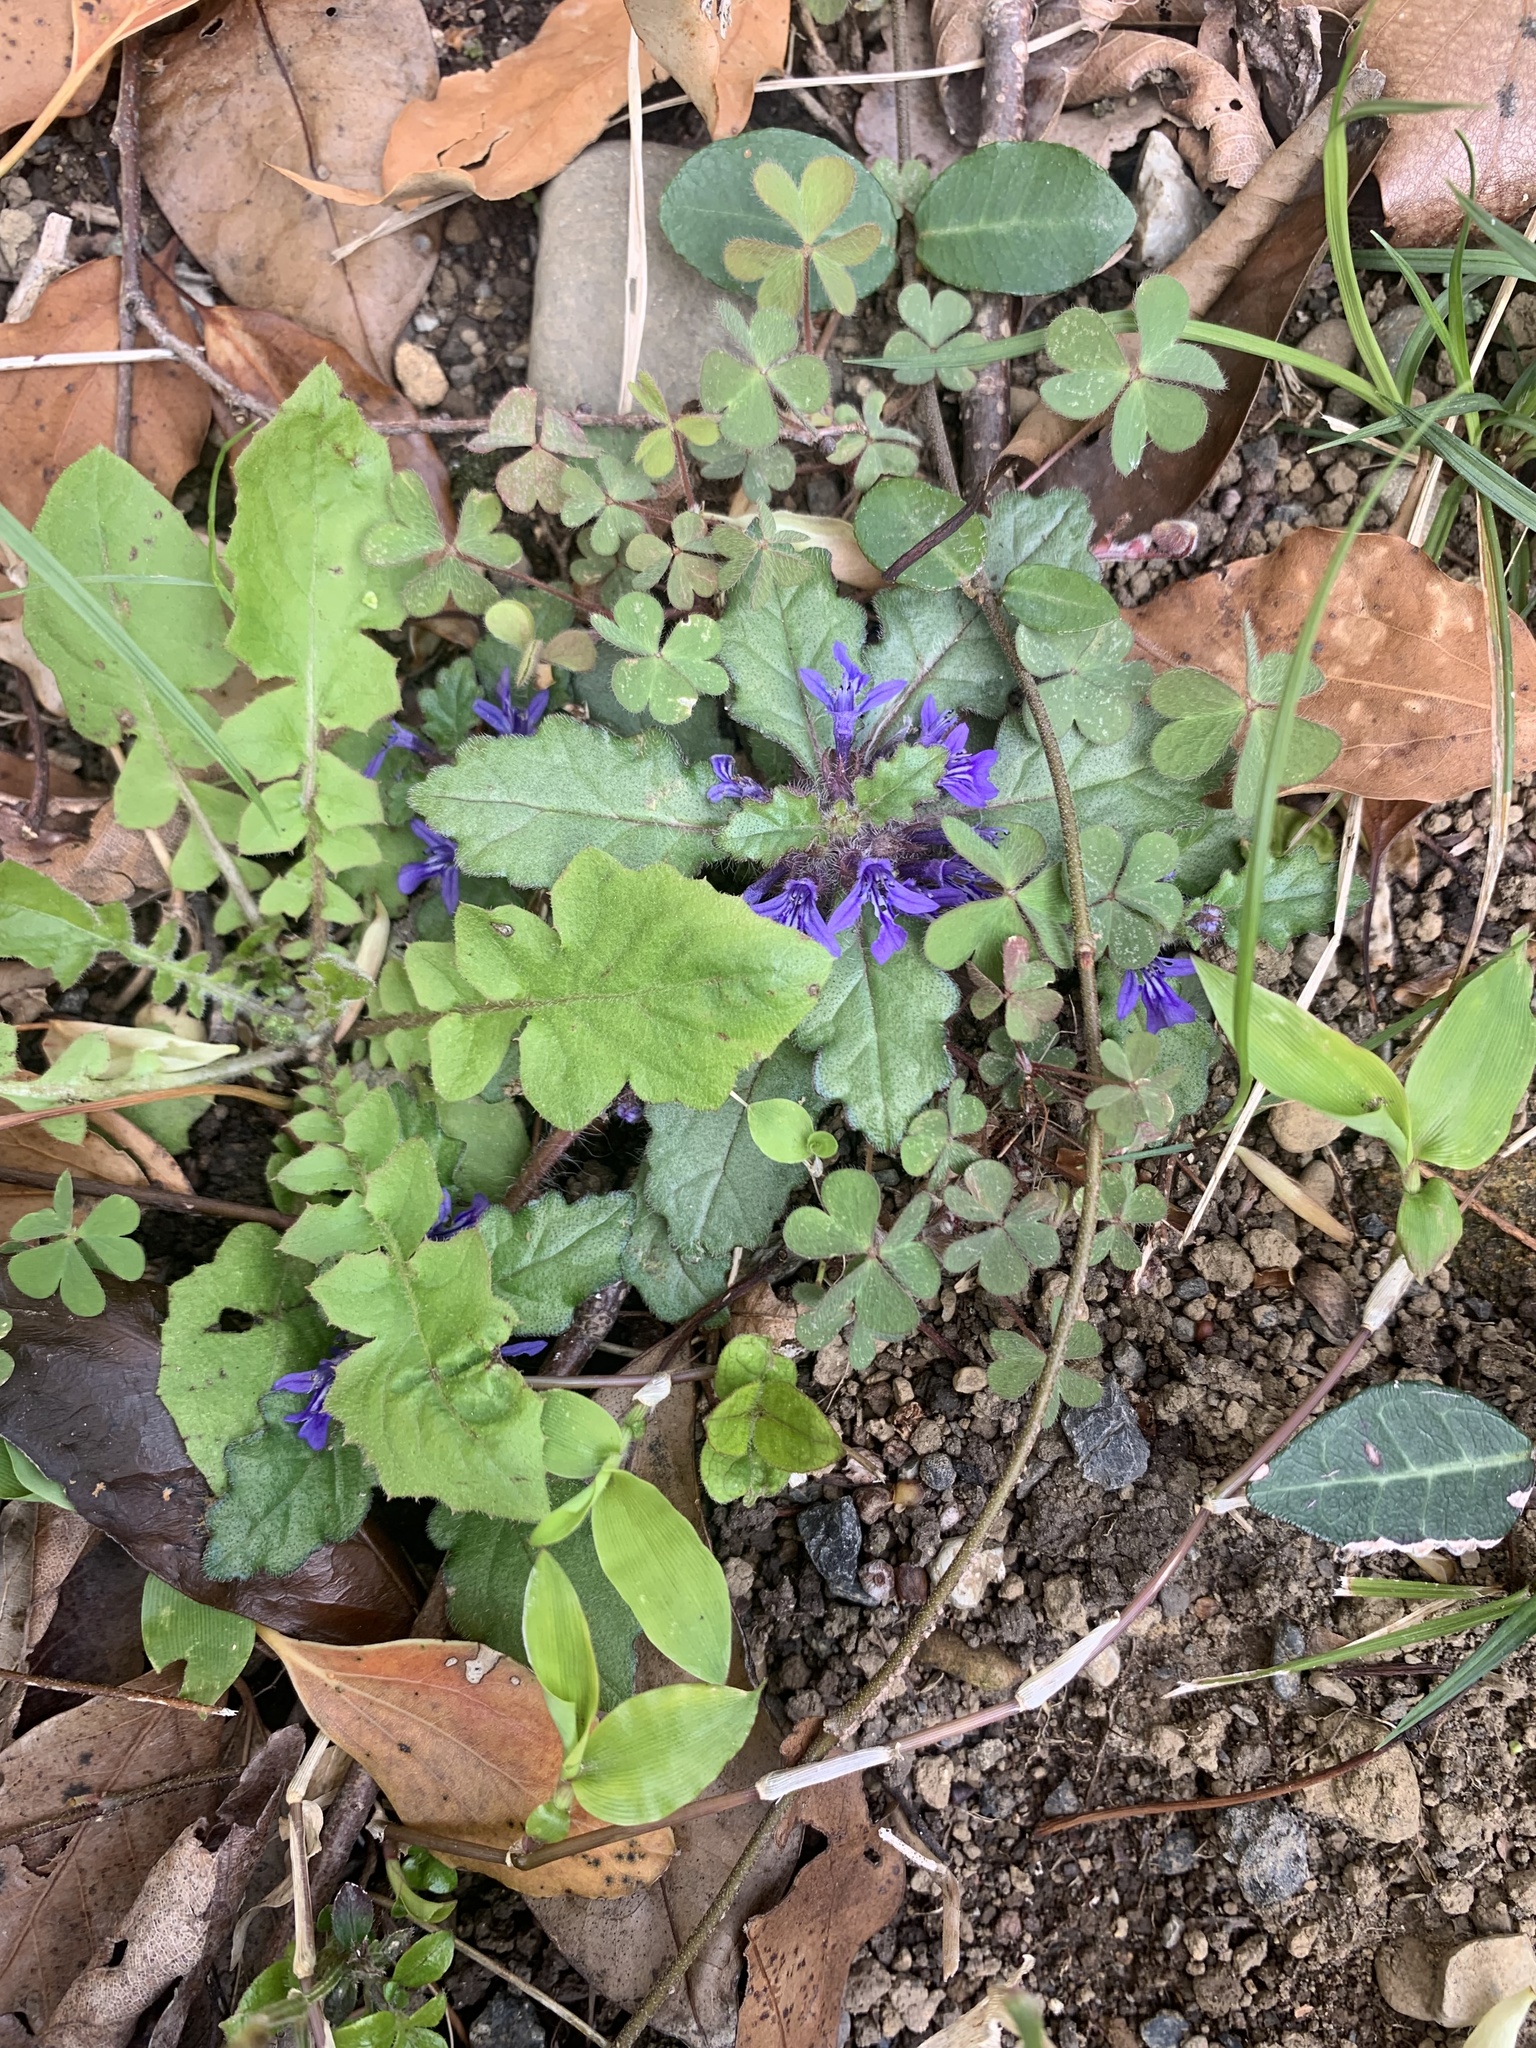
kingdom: Plantae
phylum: Tracheophyta
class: Magnoliopsida
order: Lamiales
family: Lamiaceae
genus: Ajuga
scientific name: Ajuga decumbens
